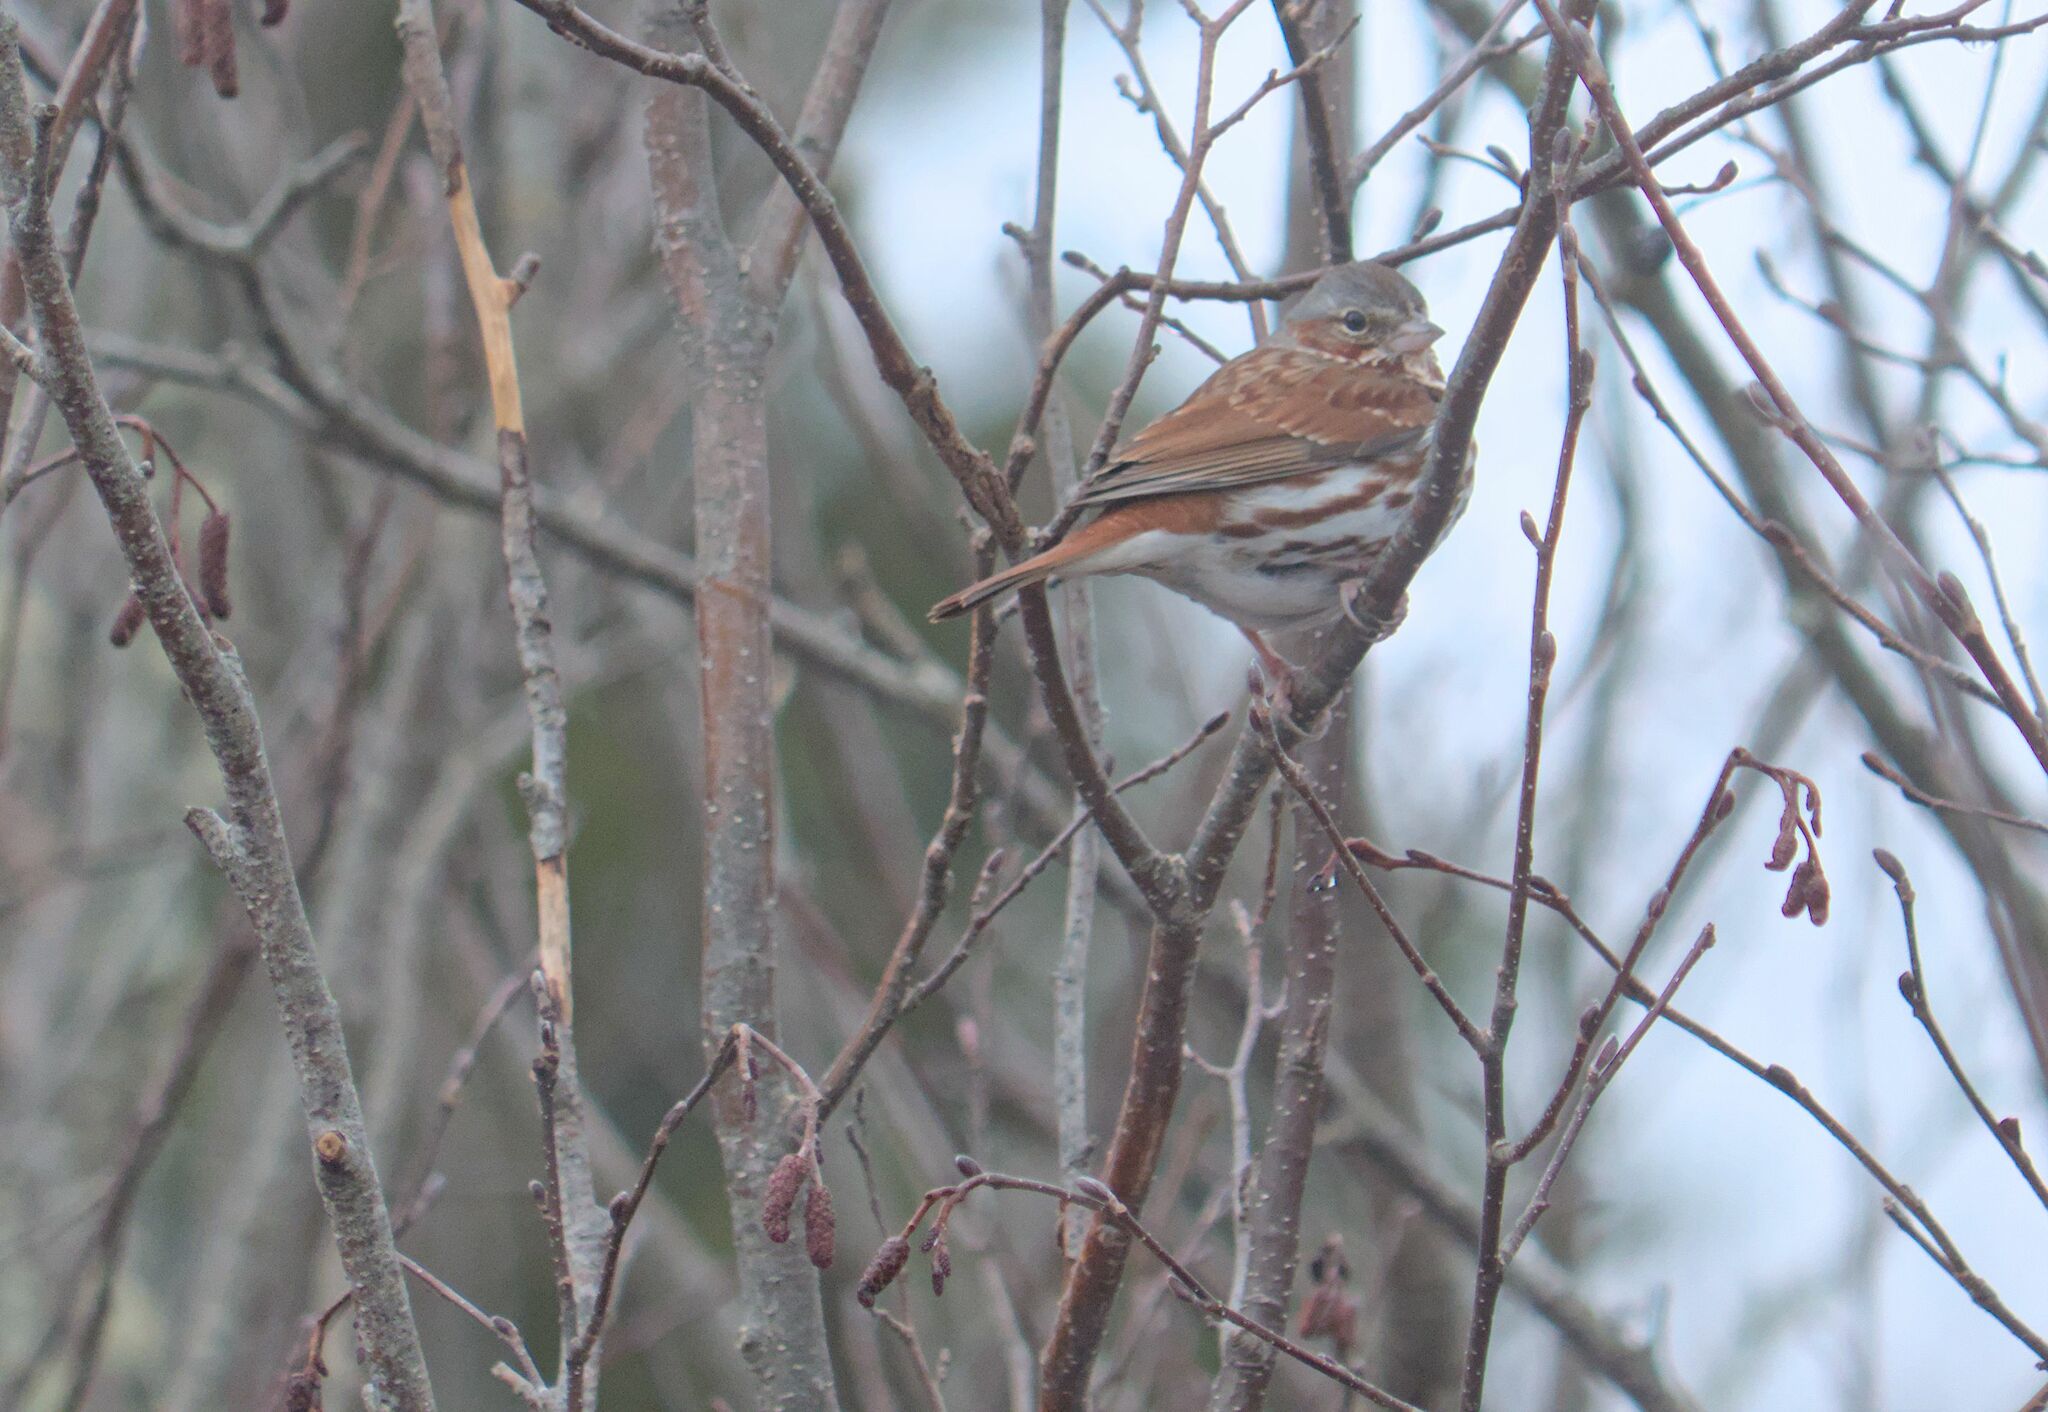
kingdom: Animalia
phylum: Chordata
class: Aves
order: Passeriformes
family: Passerellidae
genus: Passerella
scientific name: Passerella iliaca
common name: Fox sparrow
